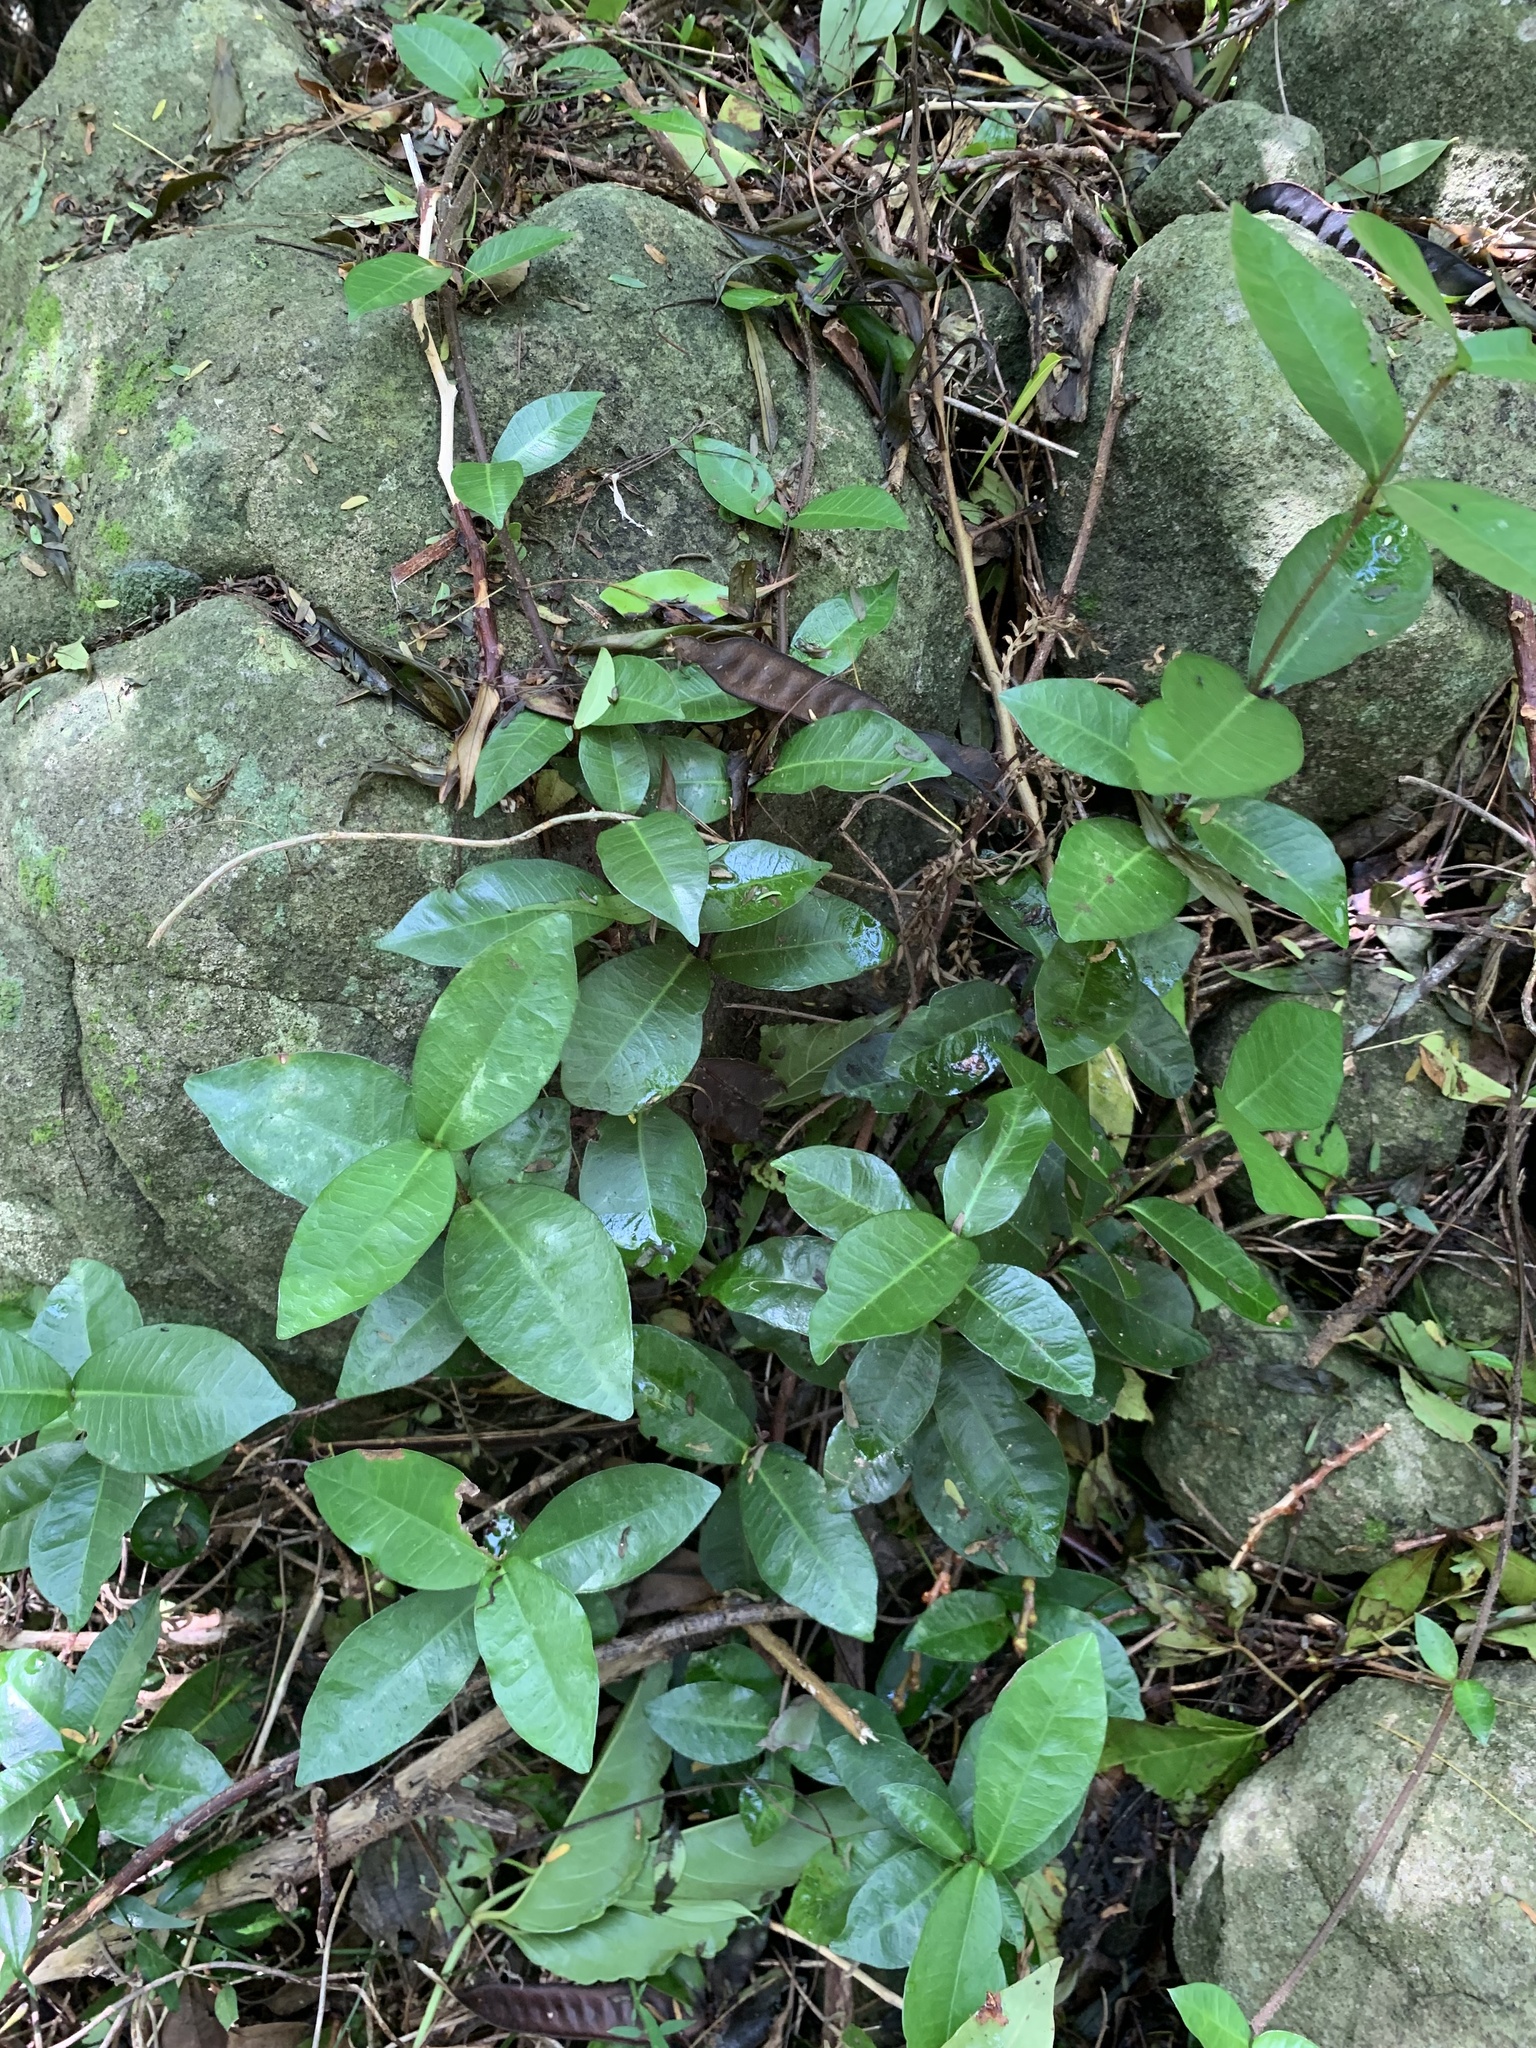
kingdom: Plantae
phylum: Tracheophyta
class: Magnoliopsida
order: Gentianales
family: Apocynaceae
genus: Trachelospermum
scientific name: Trachelospermum asiaticum
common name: Asiatic jasmine
